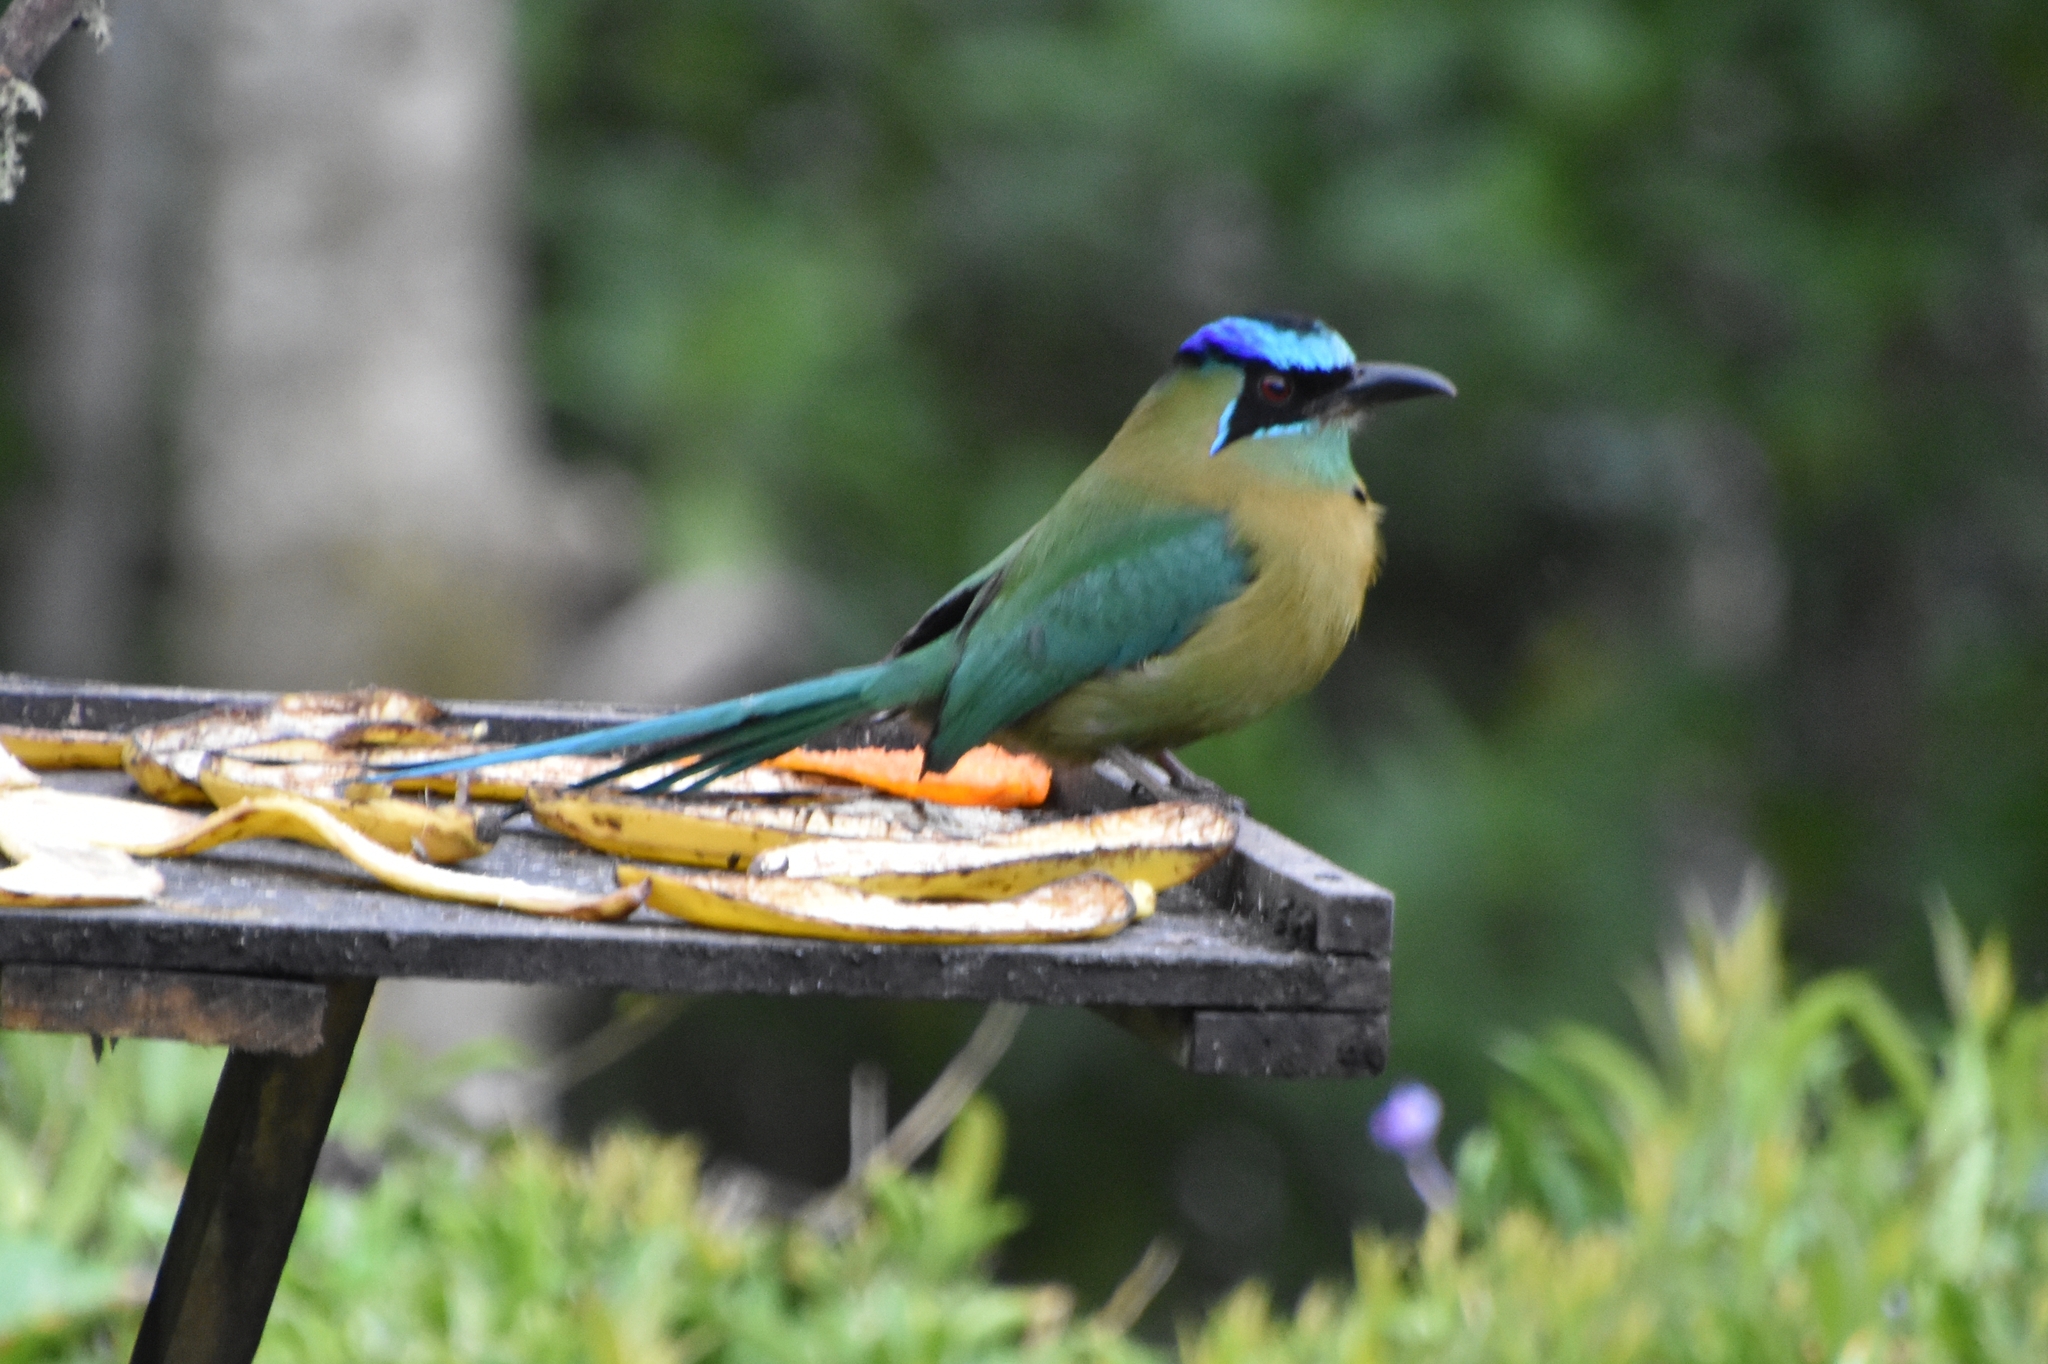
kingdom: Animalia
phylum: Chordata
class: Aves
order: Coraciiformes
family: Momotidae
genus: Momotus
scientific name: Momotus lessonii
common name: Lesson's motmot
